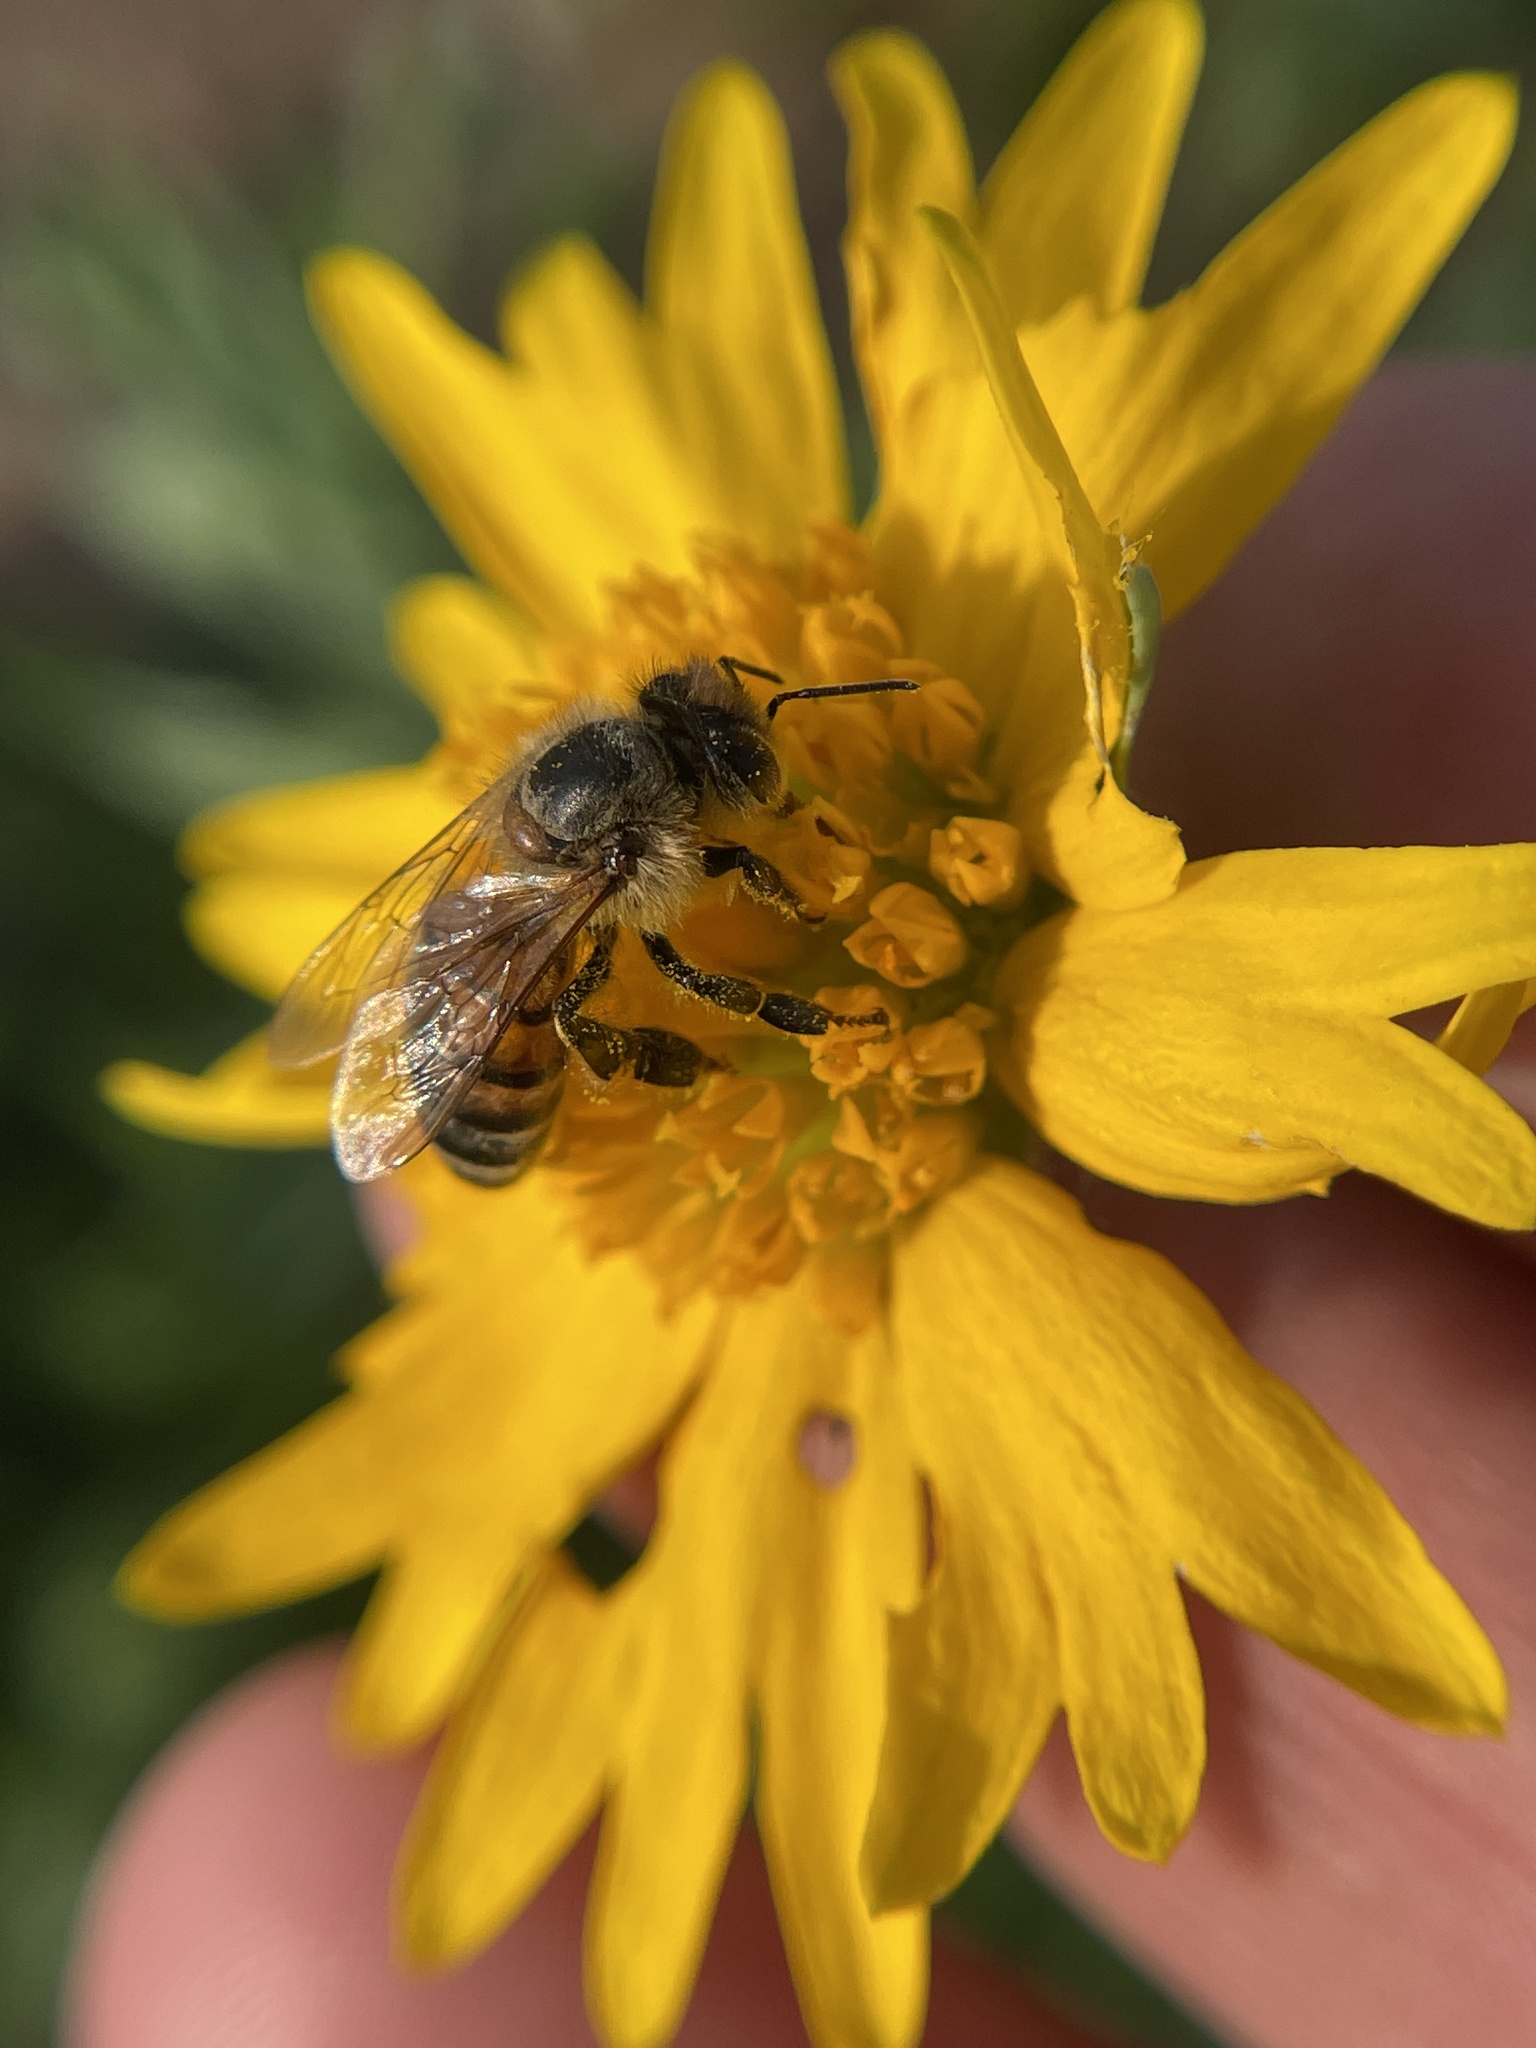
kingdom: Animalia
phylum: Arthropoda
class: Insecta
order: Hymenoptera
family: Apidae
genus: Apis
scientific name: Apis mellifera
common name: Honey bee
